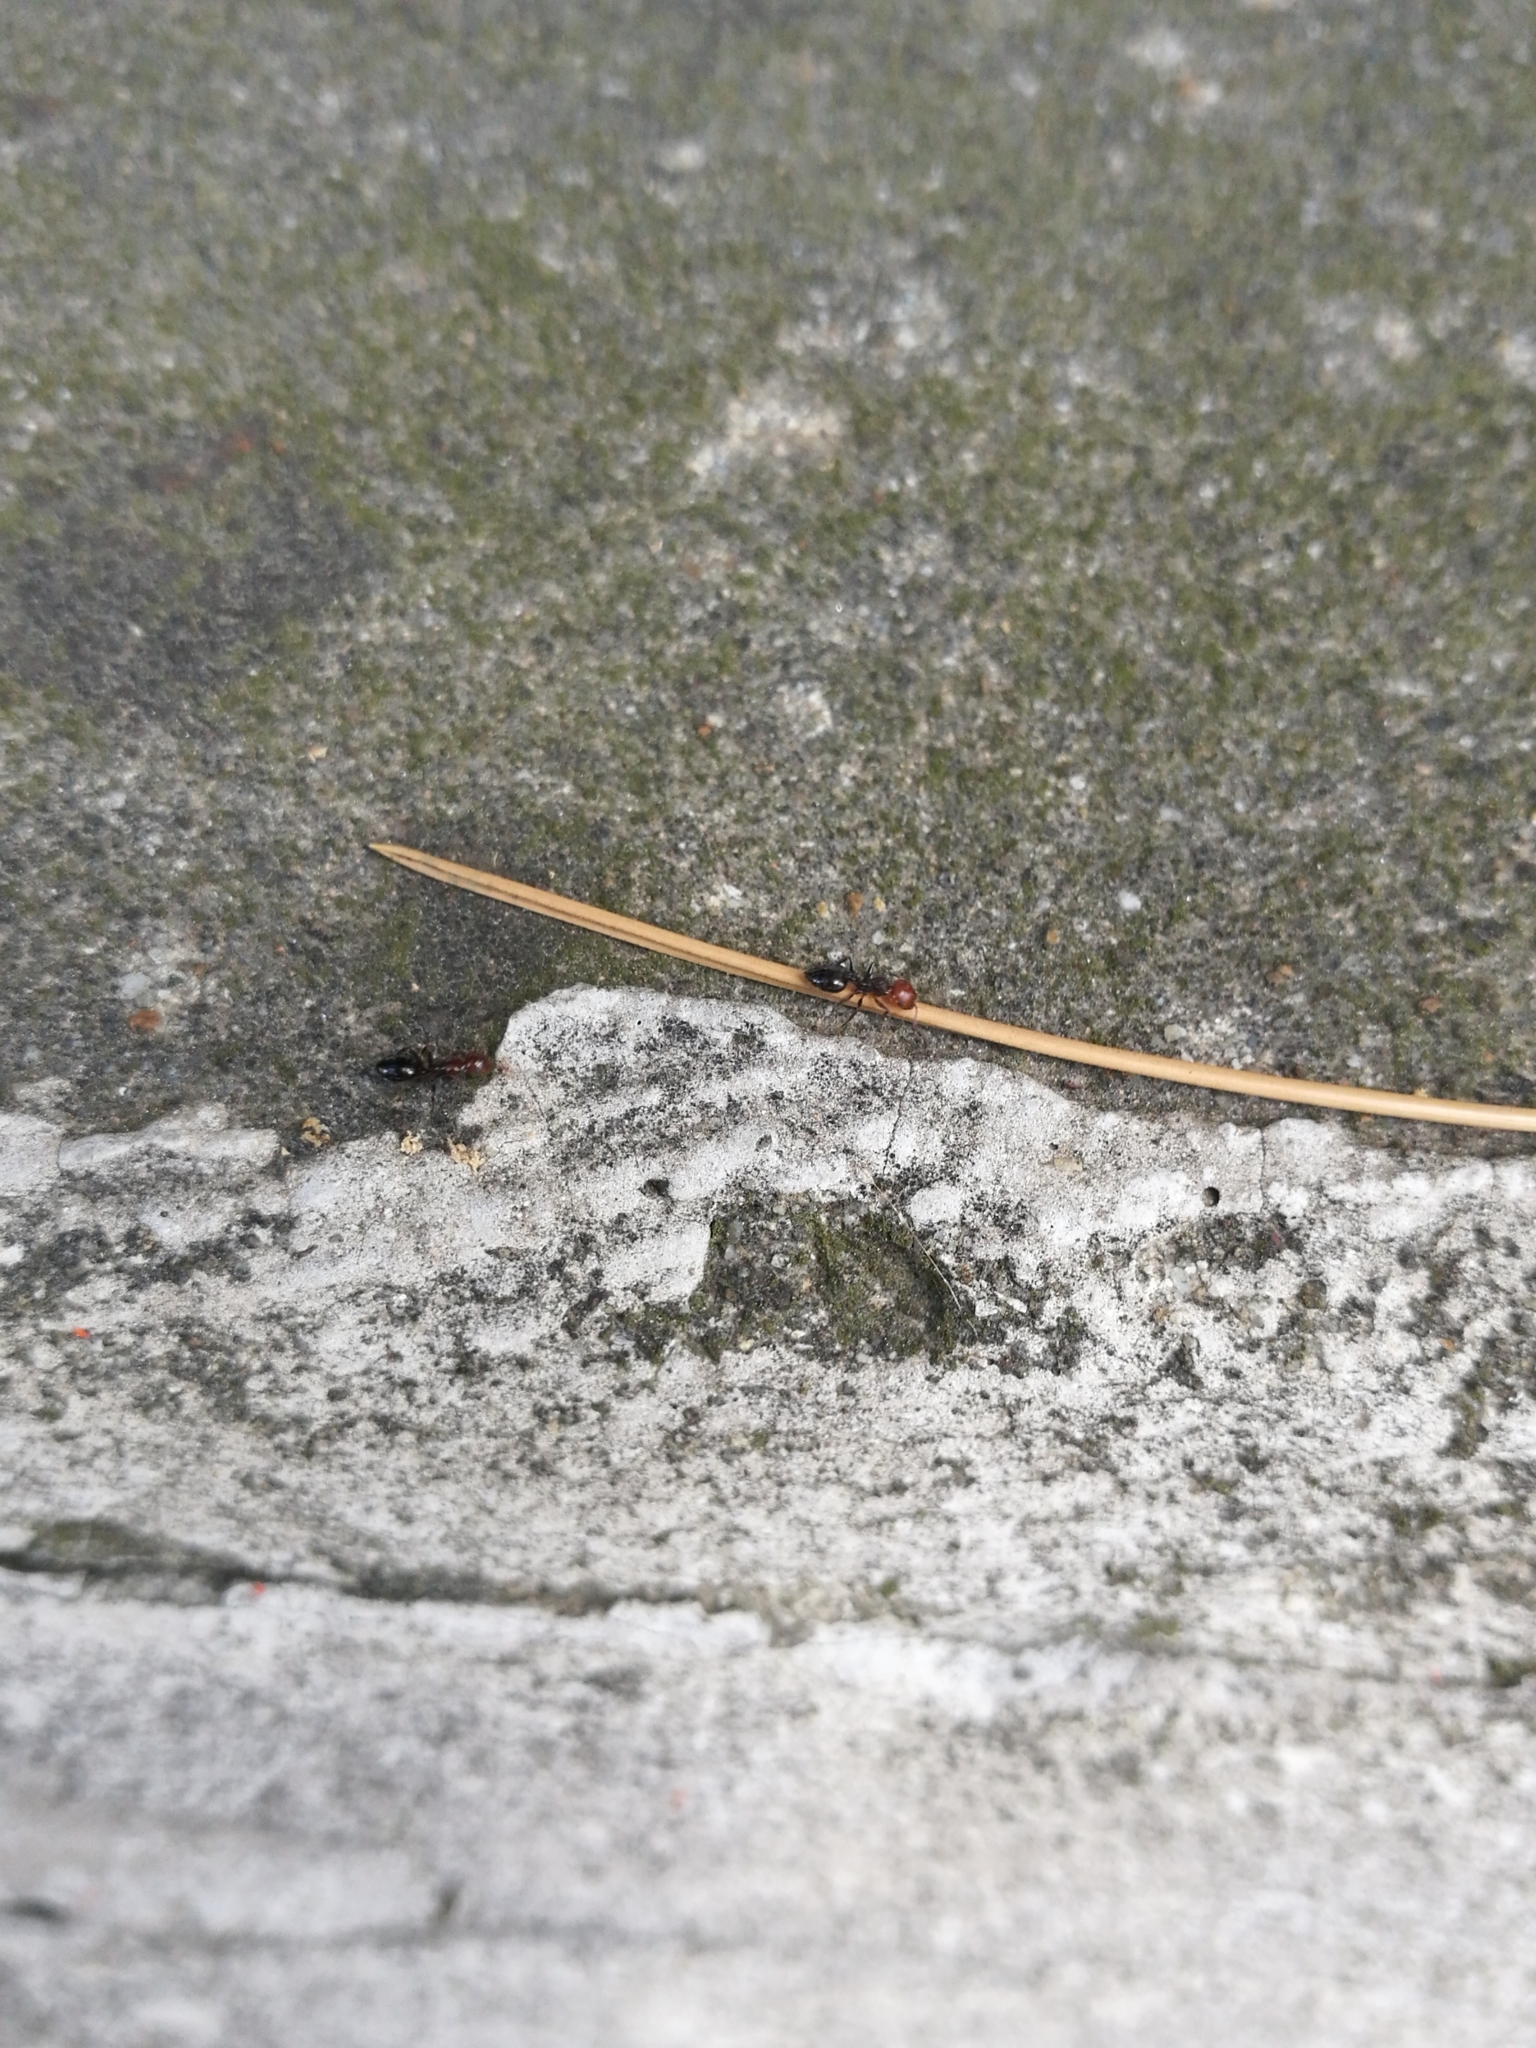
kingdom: Animalia
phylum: Arthropoda
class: Insecta
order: Hymenoptera
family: Formicidae
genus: Crematogaster
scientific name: Crematogaster scutellaris
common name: Fourmi du liège
